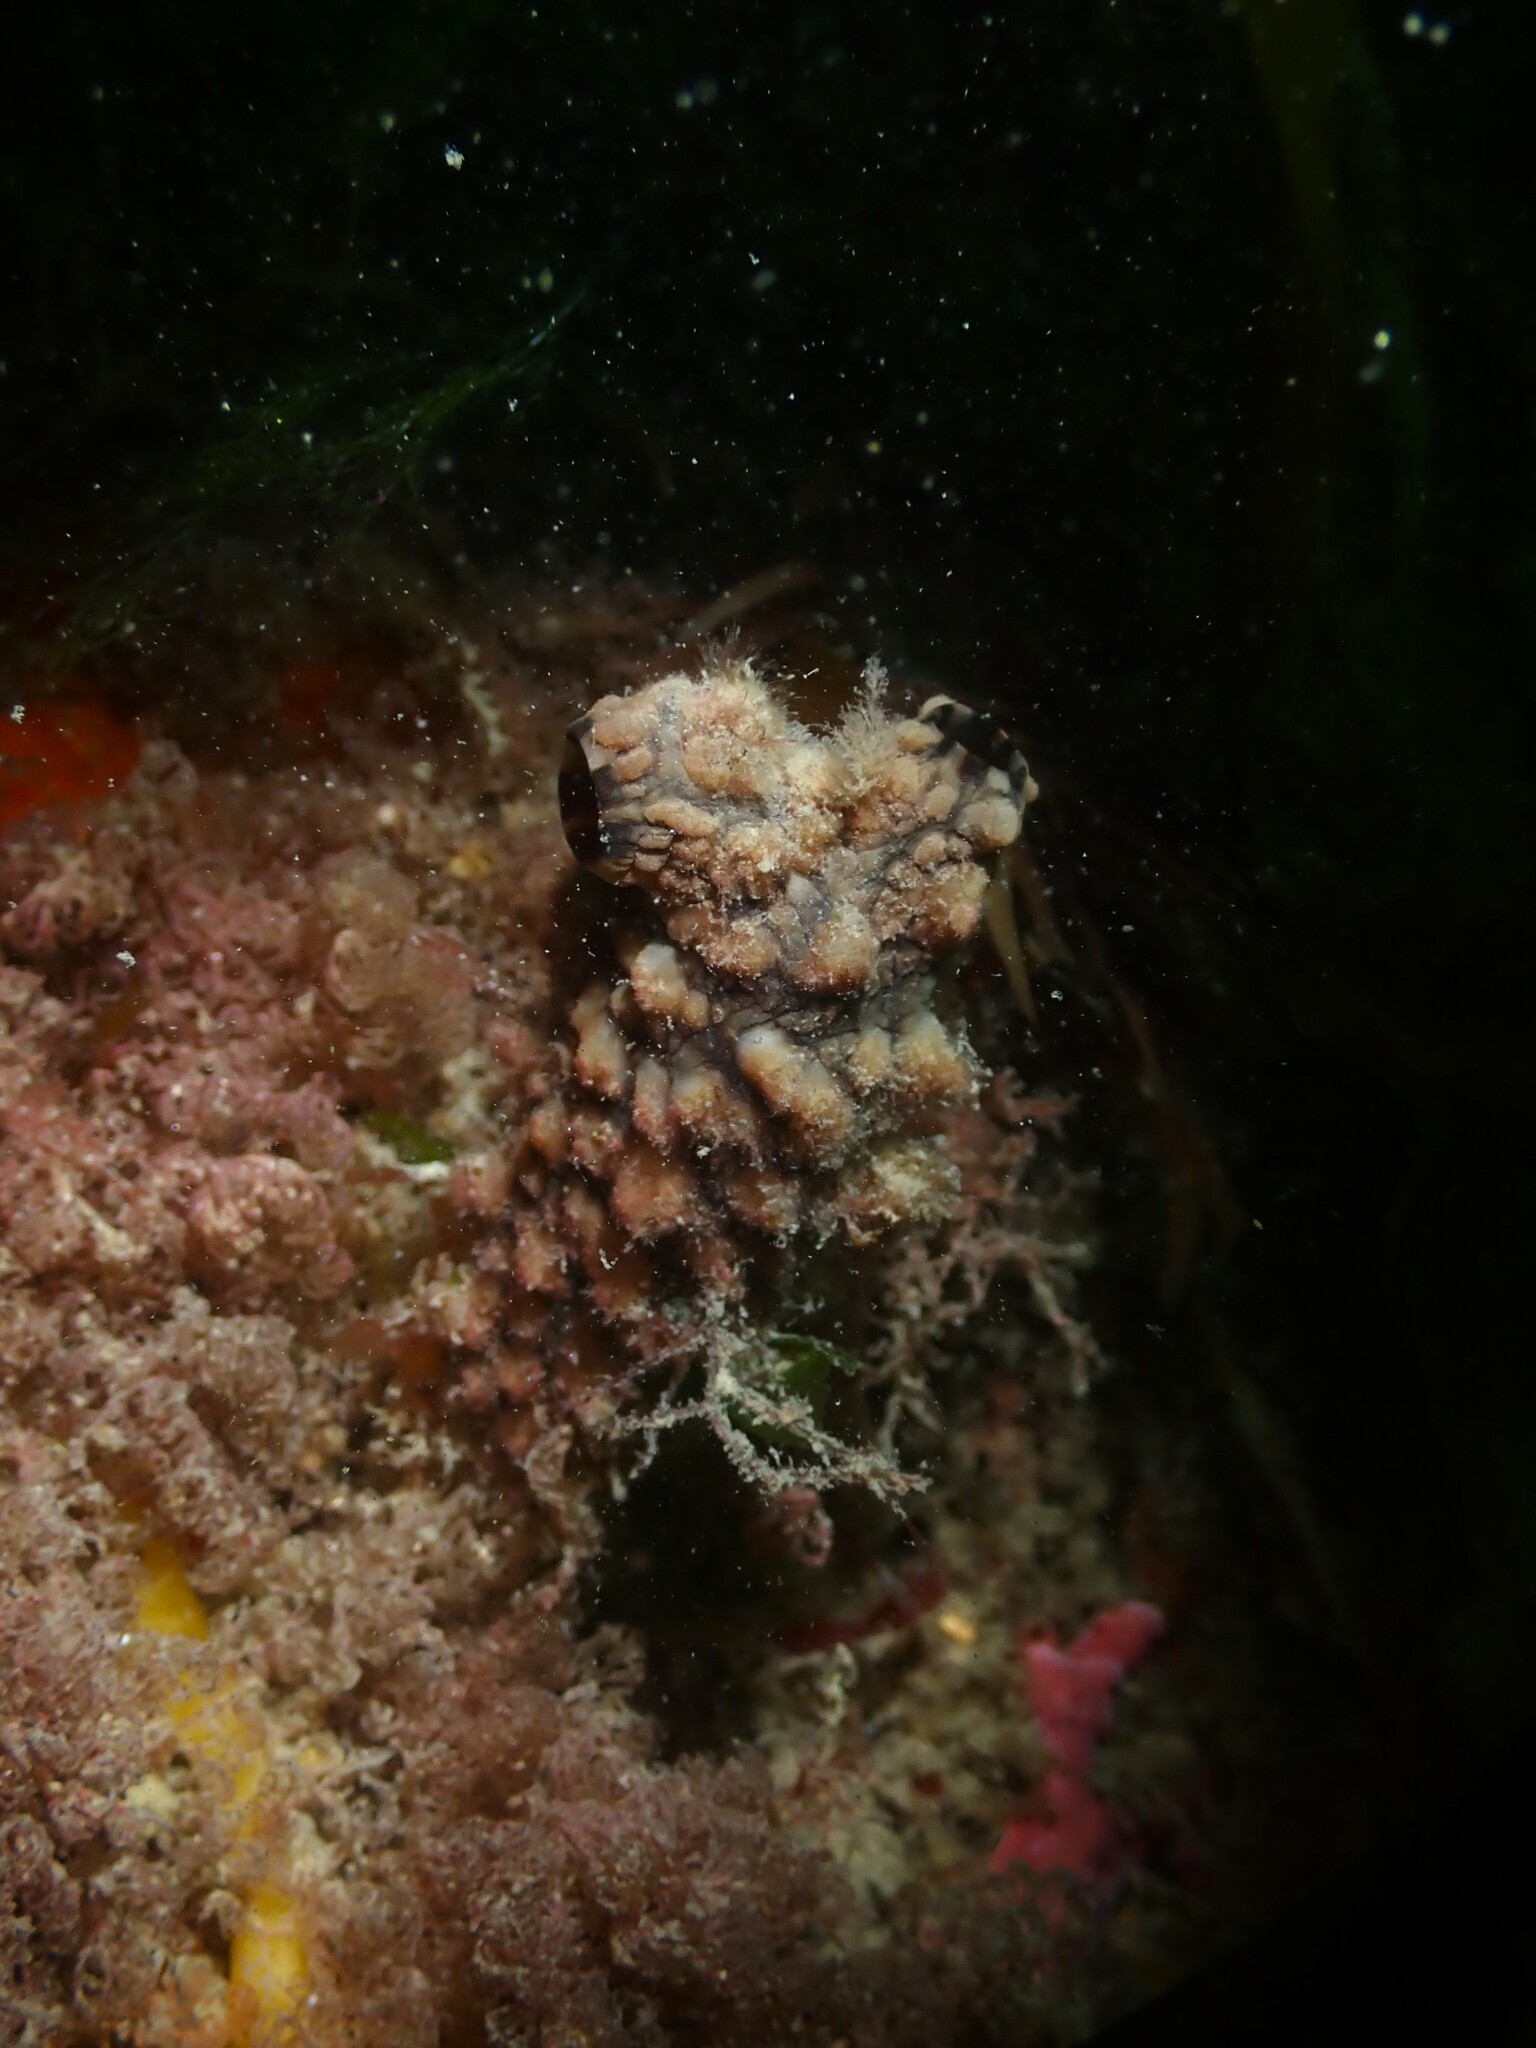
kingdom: Animalia
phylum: Chordata
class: Ascidiacea
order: Stolidobranchia
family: Styelidae
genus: Styela
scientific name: Styela clava
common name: Leathery sea squirt
